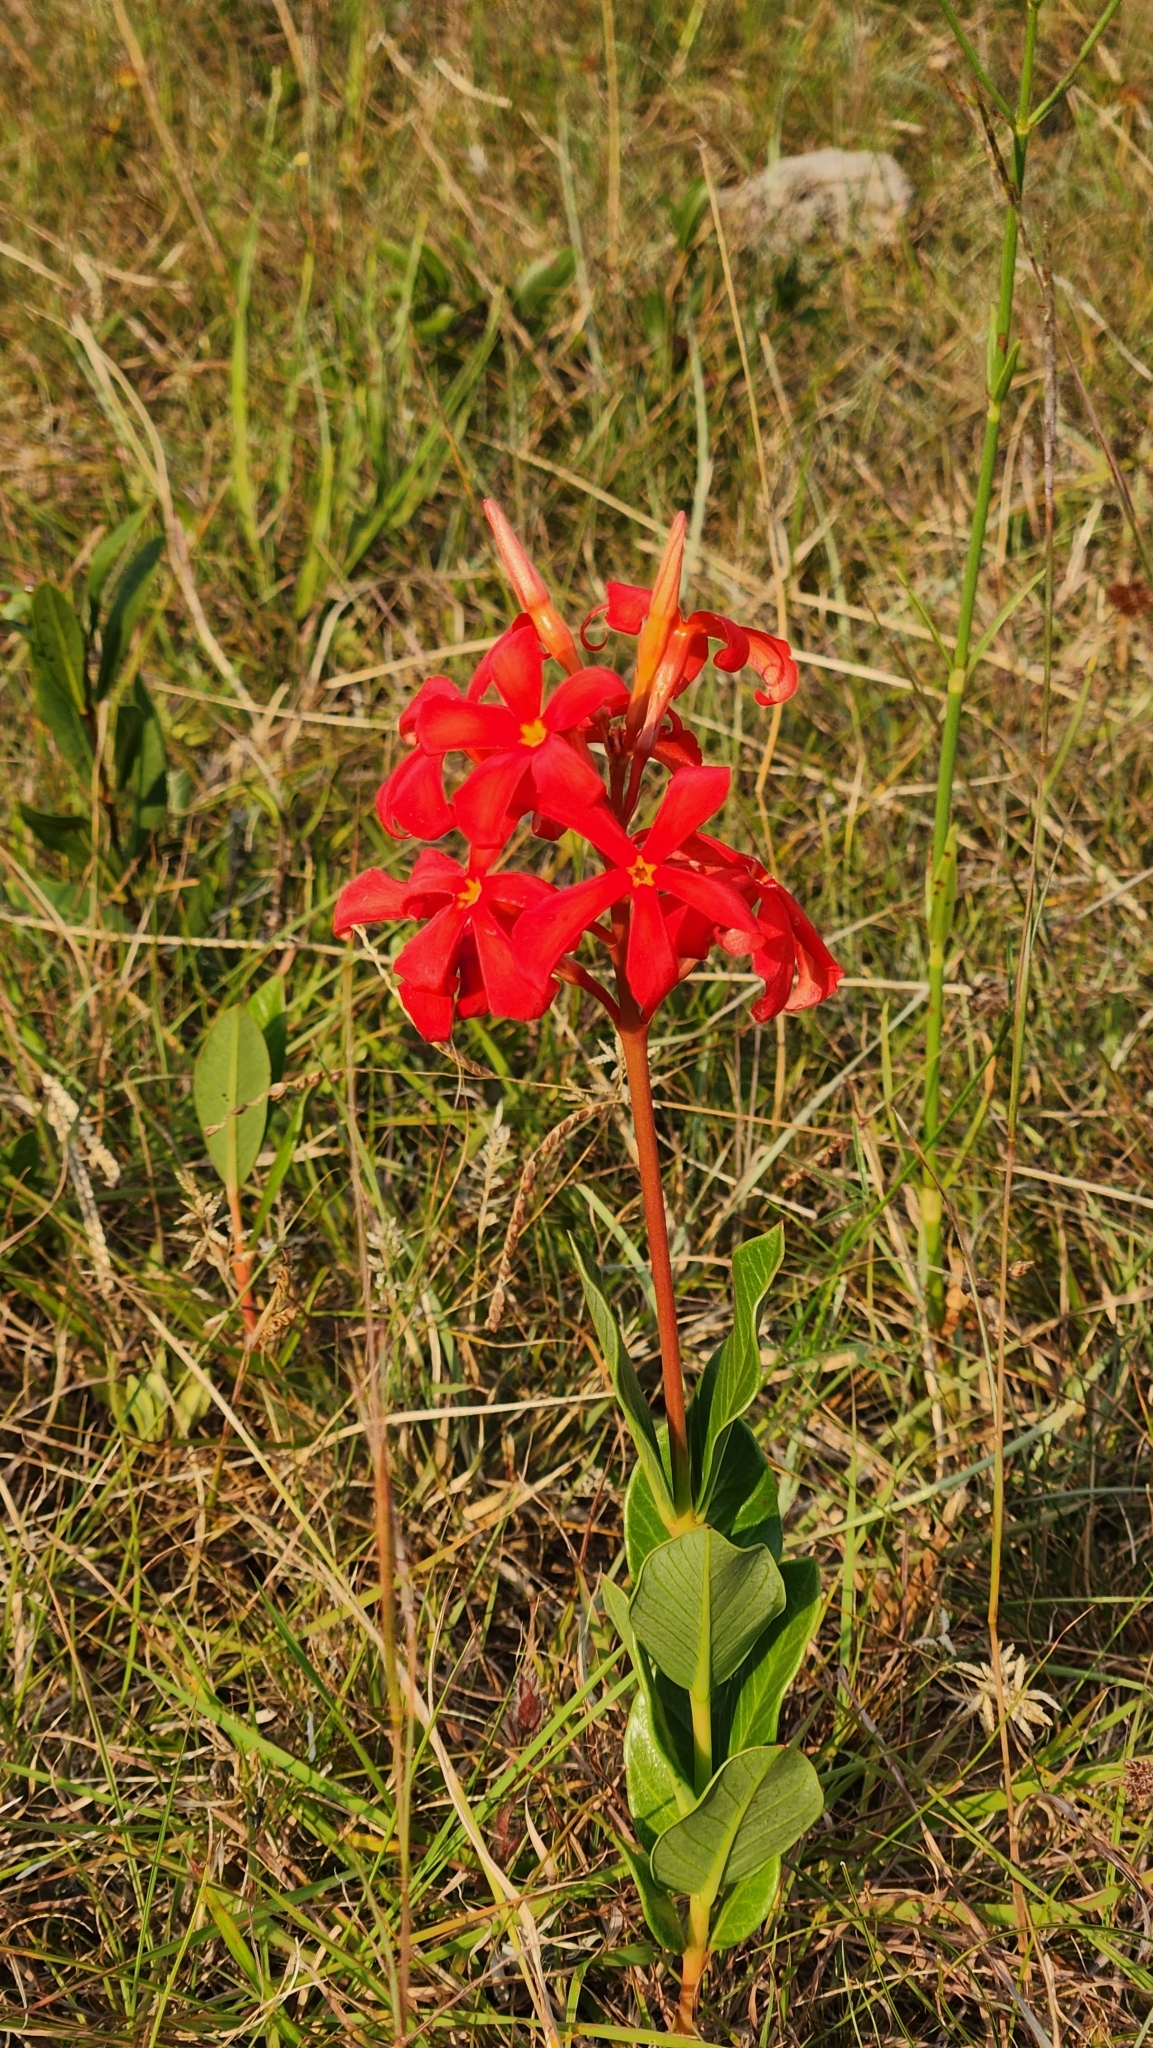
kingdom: Plantae
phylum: Tracheophyta
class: Magnoliopsida
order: Gentianales
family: Apocynaceae
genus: Mandevilla
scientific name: Mandevilla coccinea
